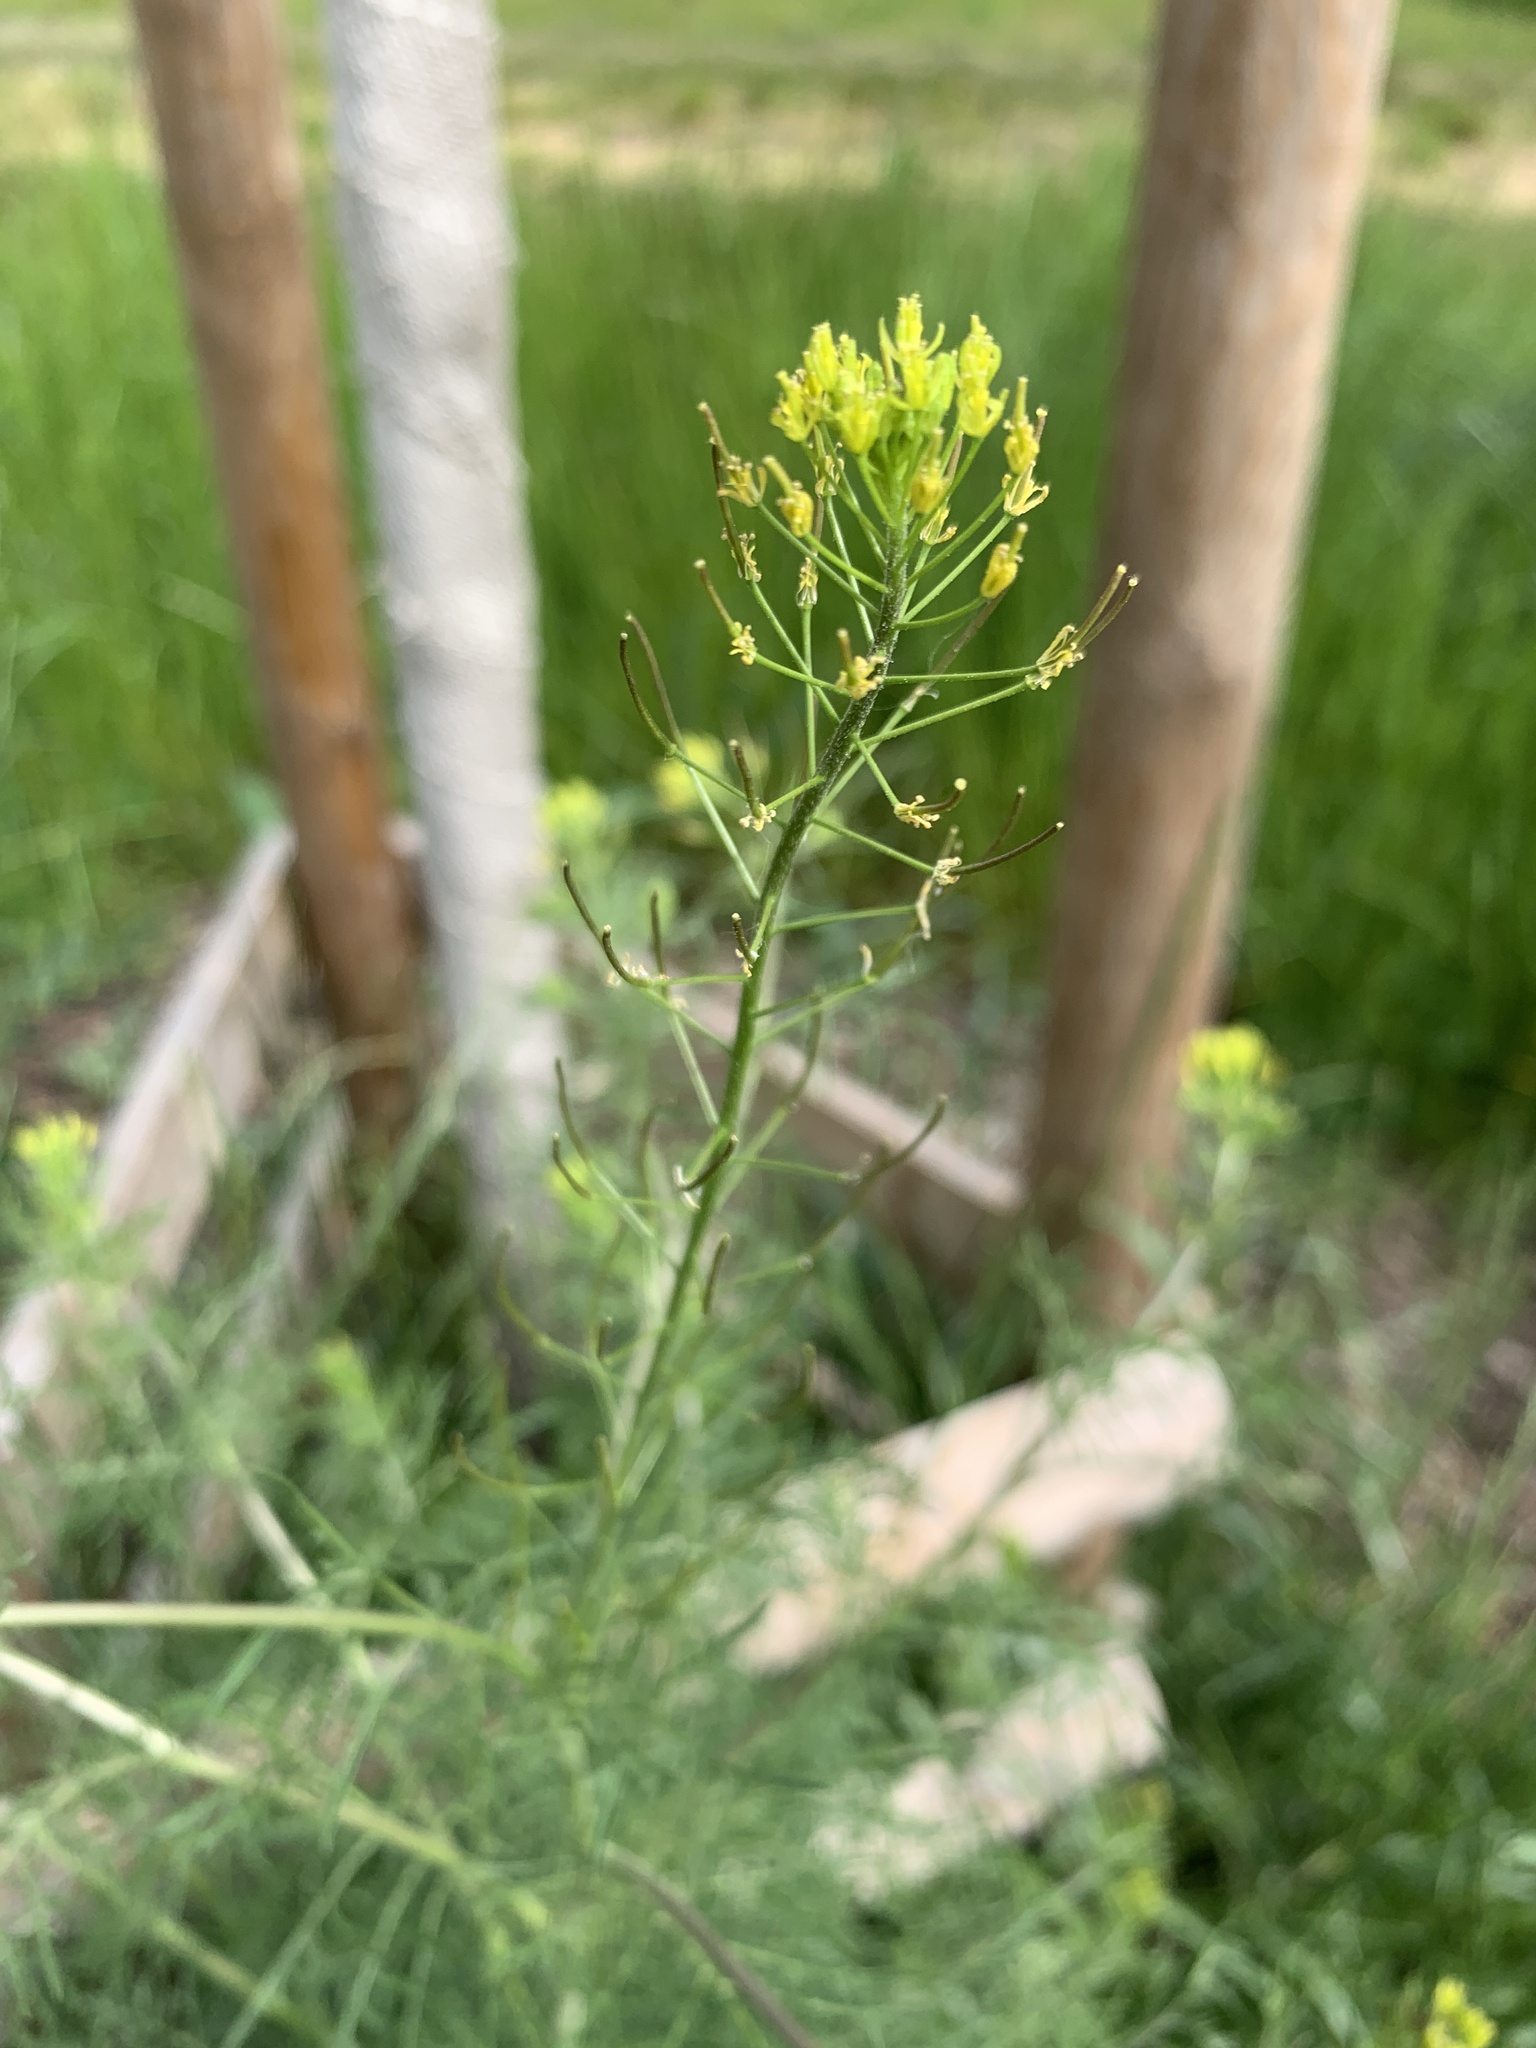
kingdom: Plantae
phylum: Tracheophyta
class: Magnoliopsida
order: Brassicales
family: Brassicaceae
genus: Descurainia
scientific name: Descurainia sophia
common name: Flixweed
